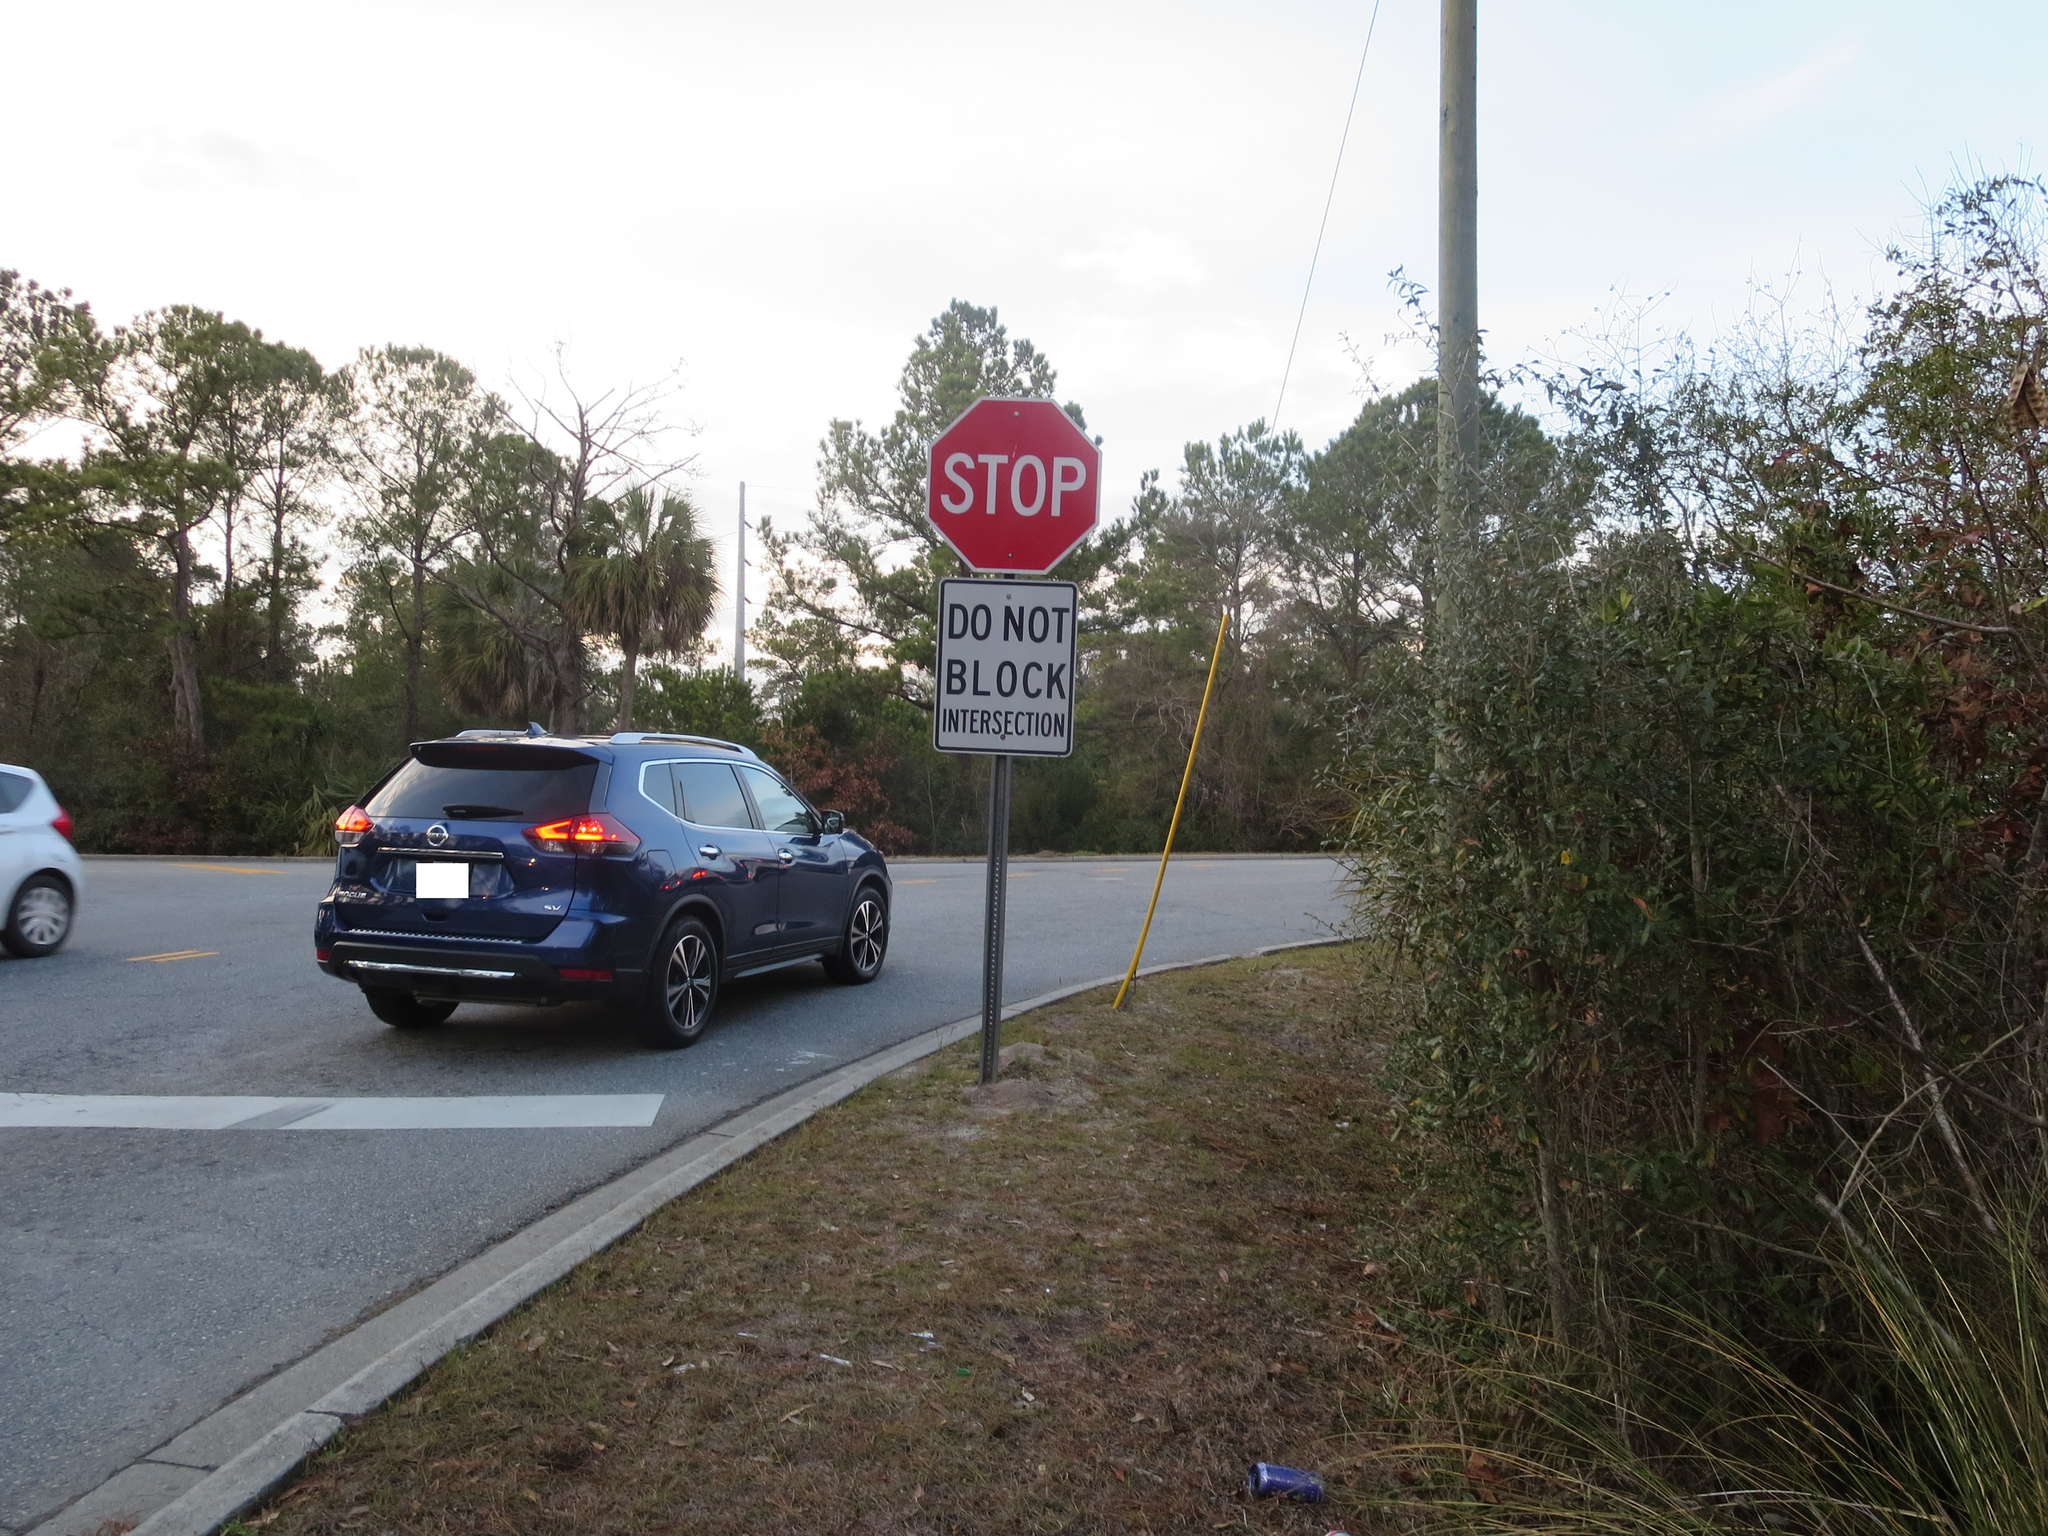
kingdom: Plantae
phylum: Tracheophyta
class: Magnoliopsida
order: Gentianales
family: Gelsemiaceae
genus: Gelsemium
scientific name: Gelsemium sempervirens
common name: Carolina-jasmine
